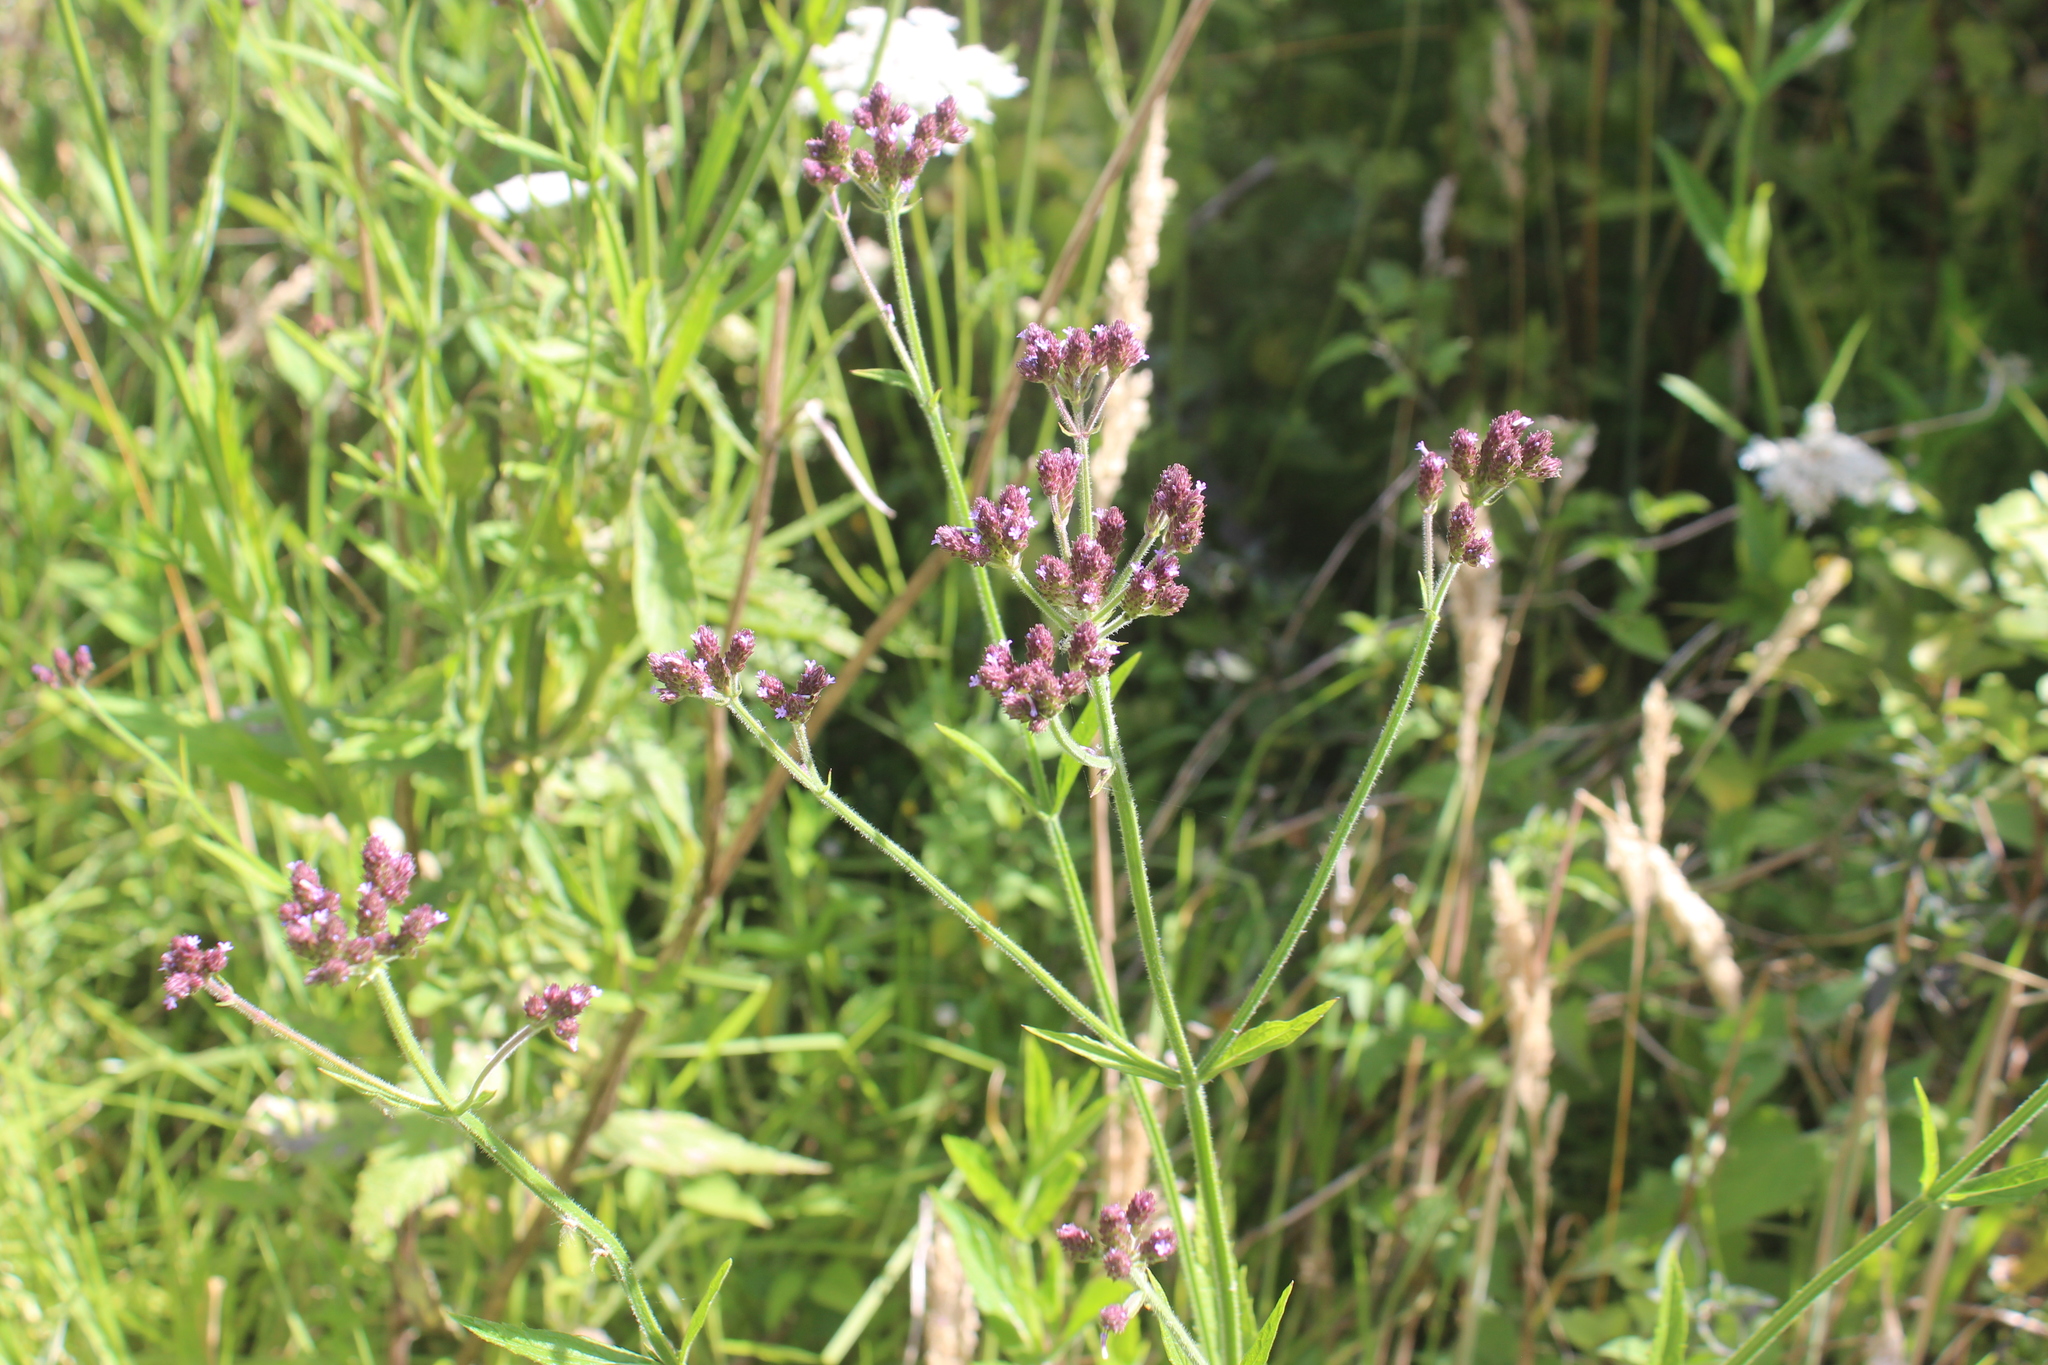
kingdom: Plantae
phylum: Tracheophyta
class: Magnoliopsida
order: Lamiales
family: Verbenaceae
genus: Verbena
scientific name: Verbena incompta
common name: Purpletop vervain
